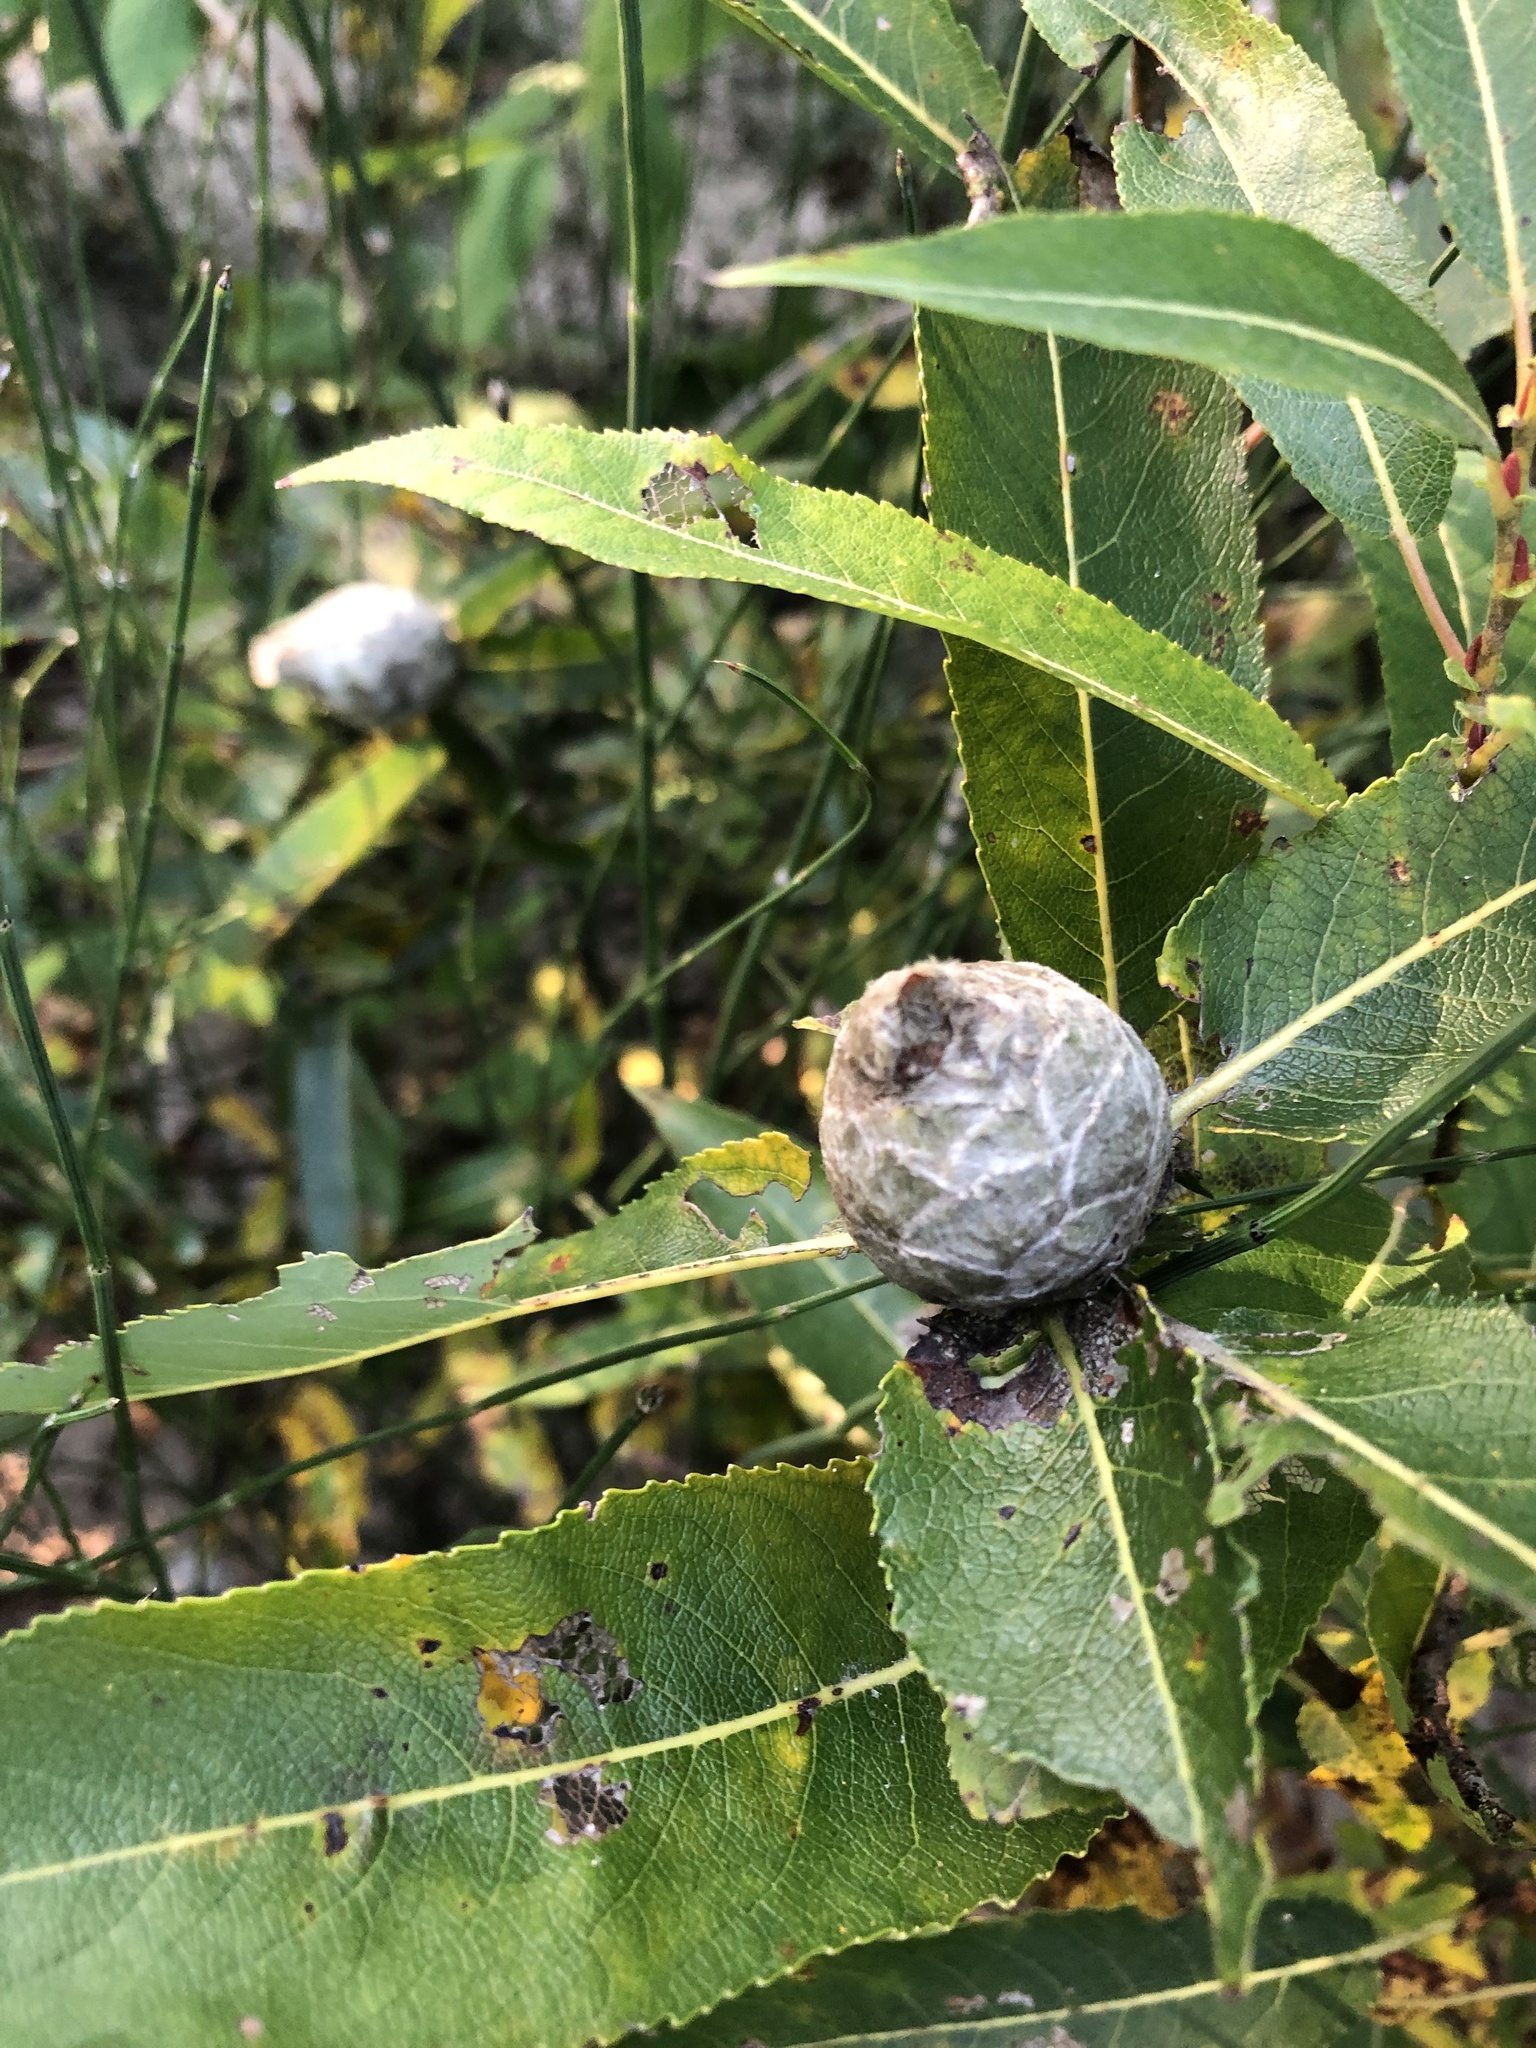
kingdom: Animalia
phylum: Arthropoda
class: Insecta
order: Diptera
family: Cecidomyiidae
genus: Rabdophaga
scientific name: Rabdophaga strobiloides
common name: Willow pinecone gall midge
